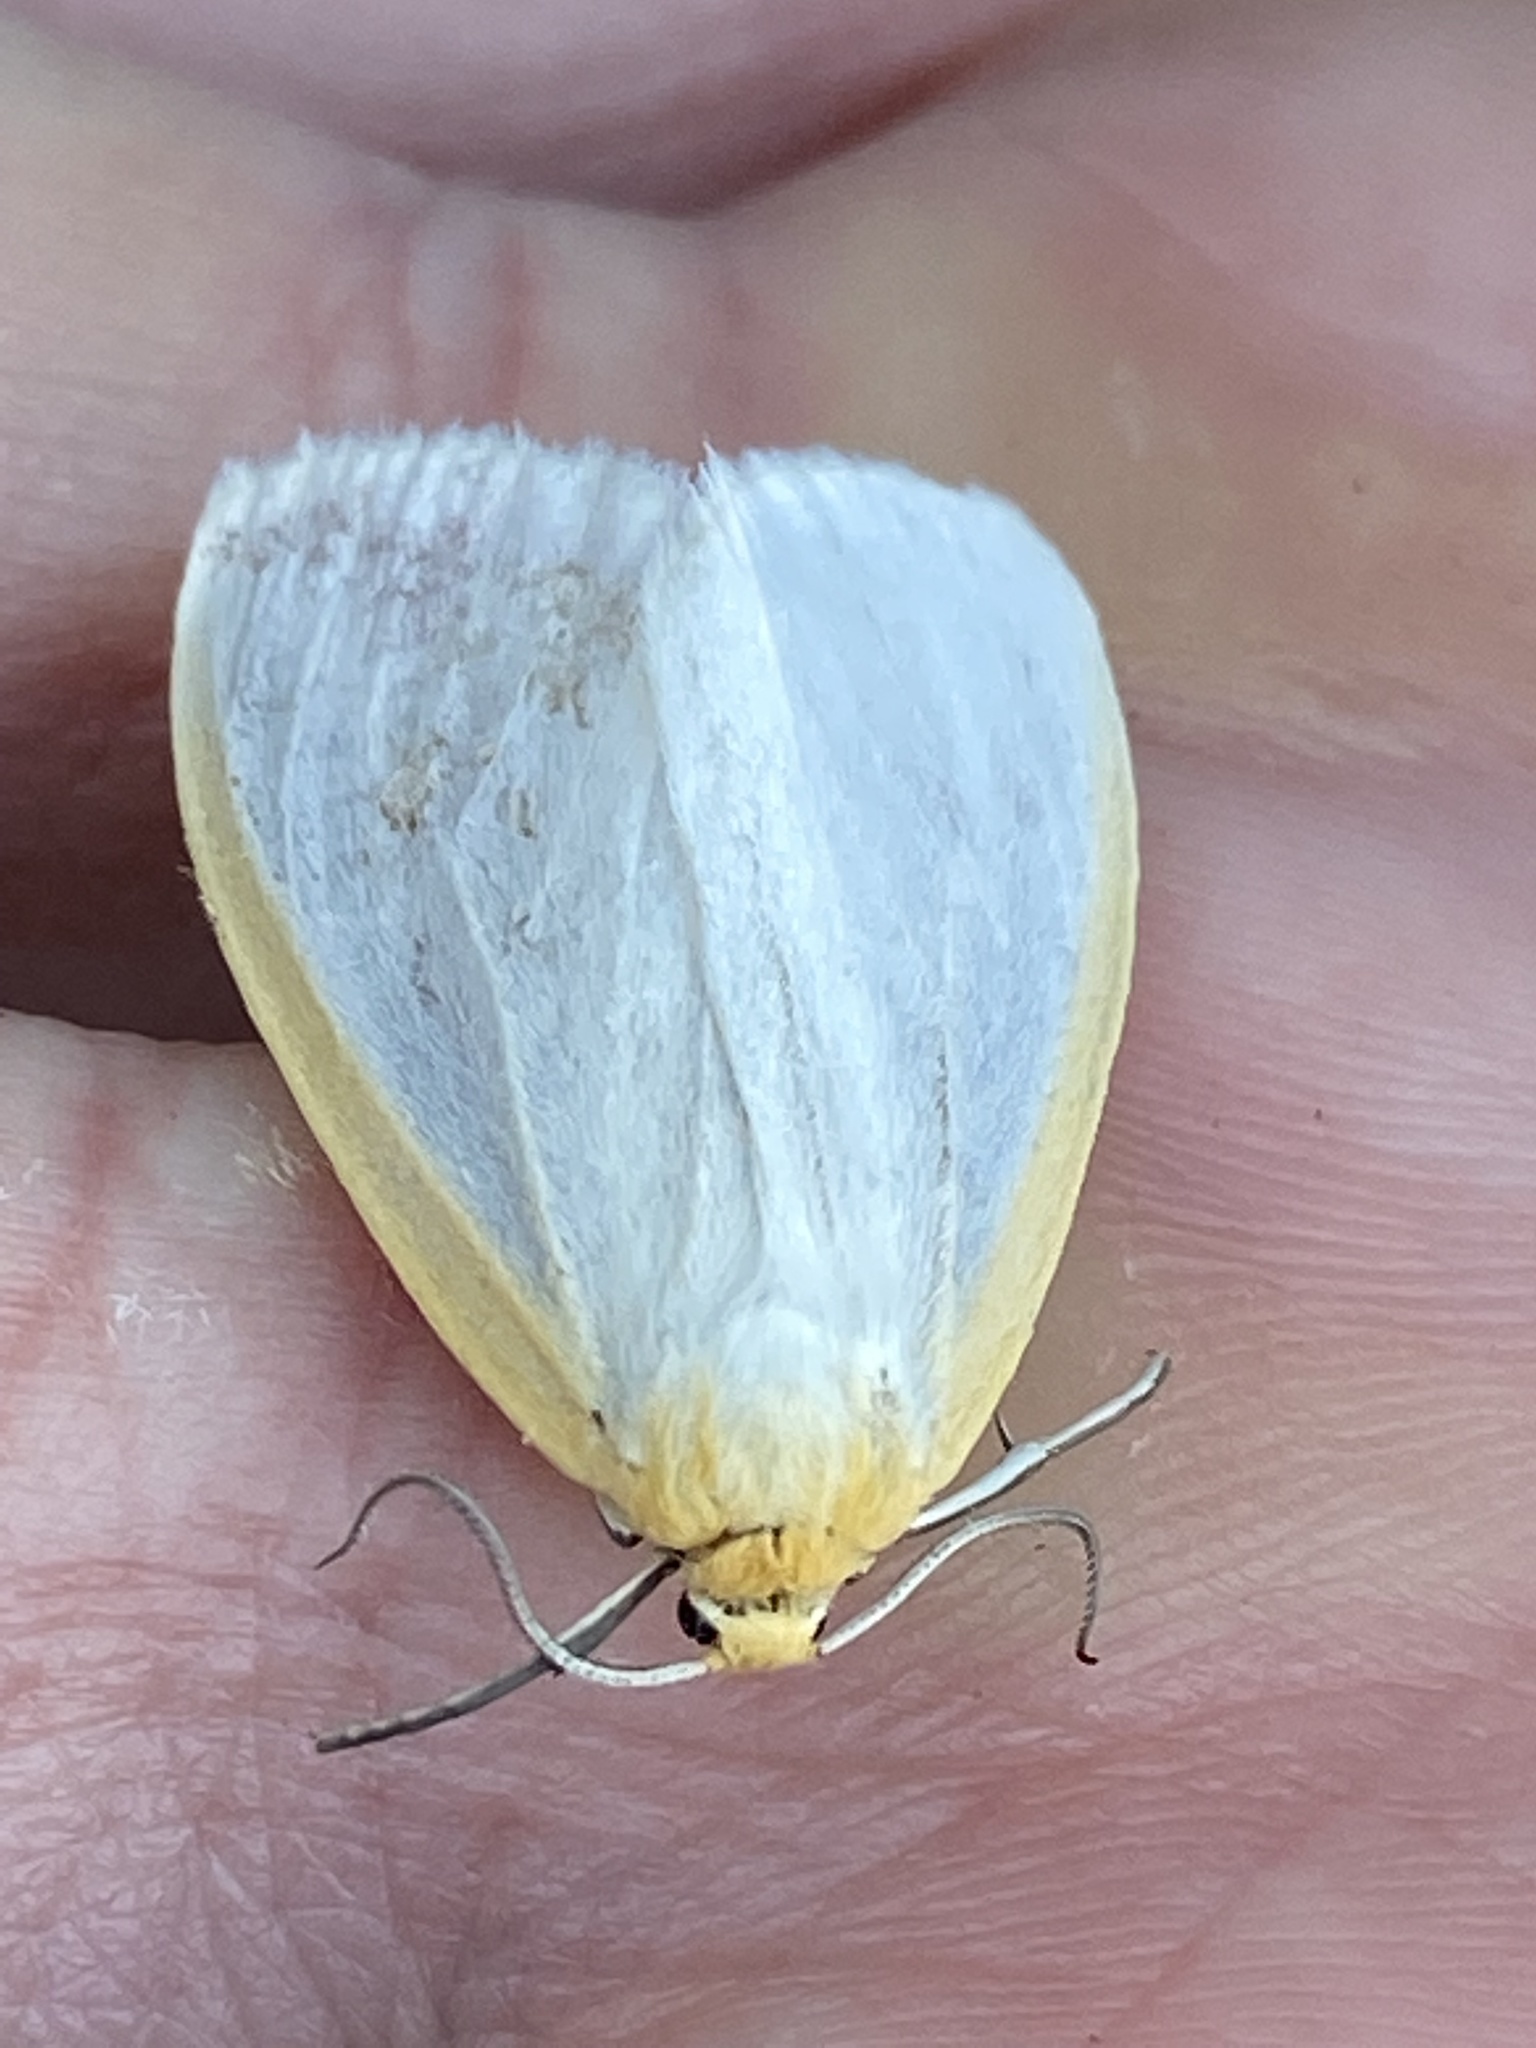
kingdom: Animalia
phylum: Arthropoda
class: Insecta
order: Lepidoptera
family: Erebidae
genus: Cycnia
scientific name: Cycnia tenera
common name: Delicate cycnia moth
